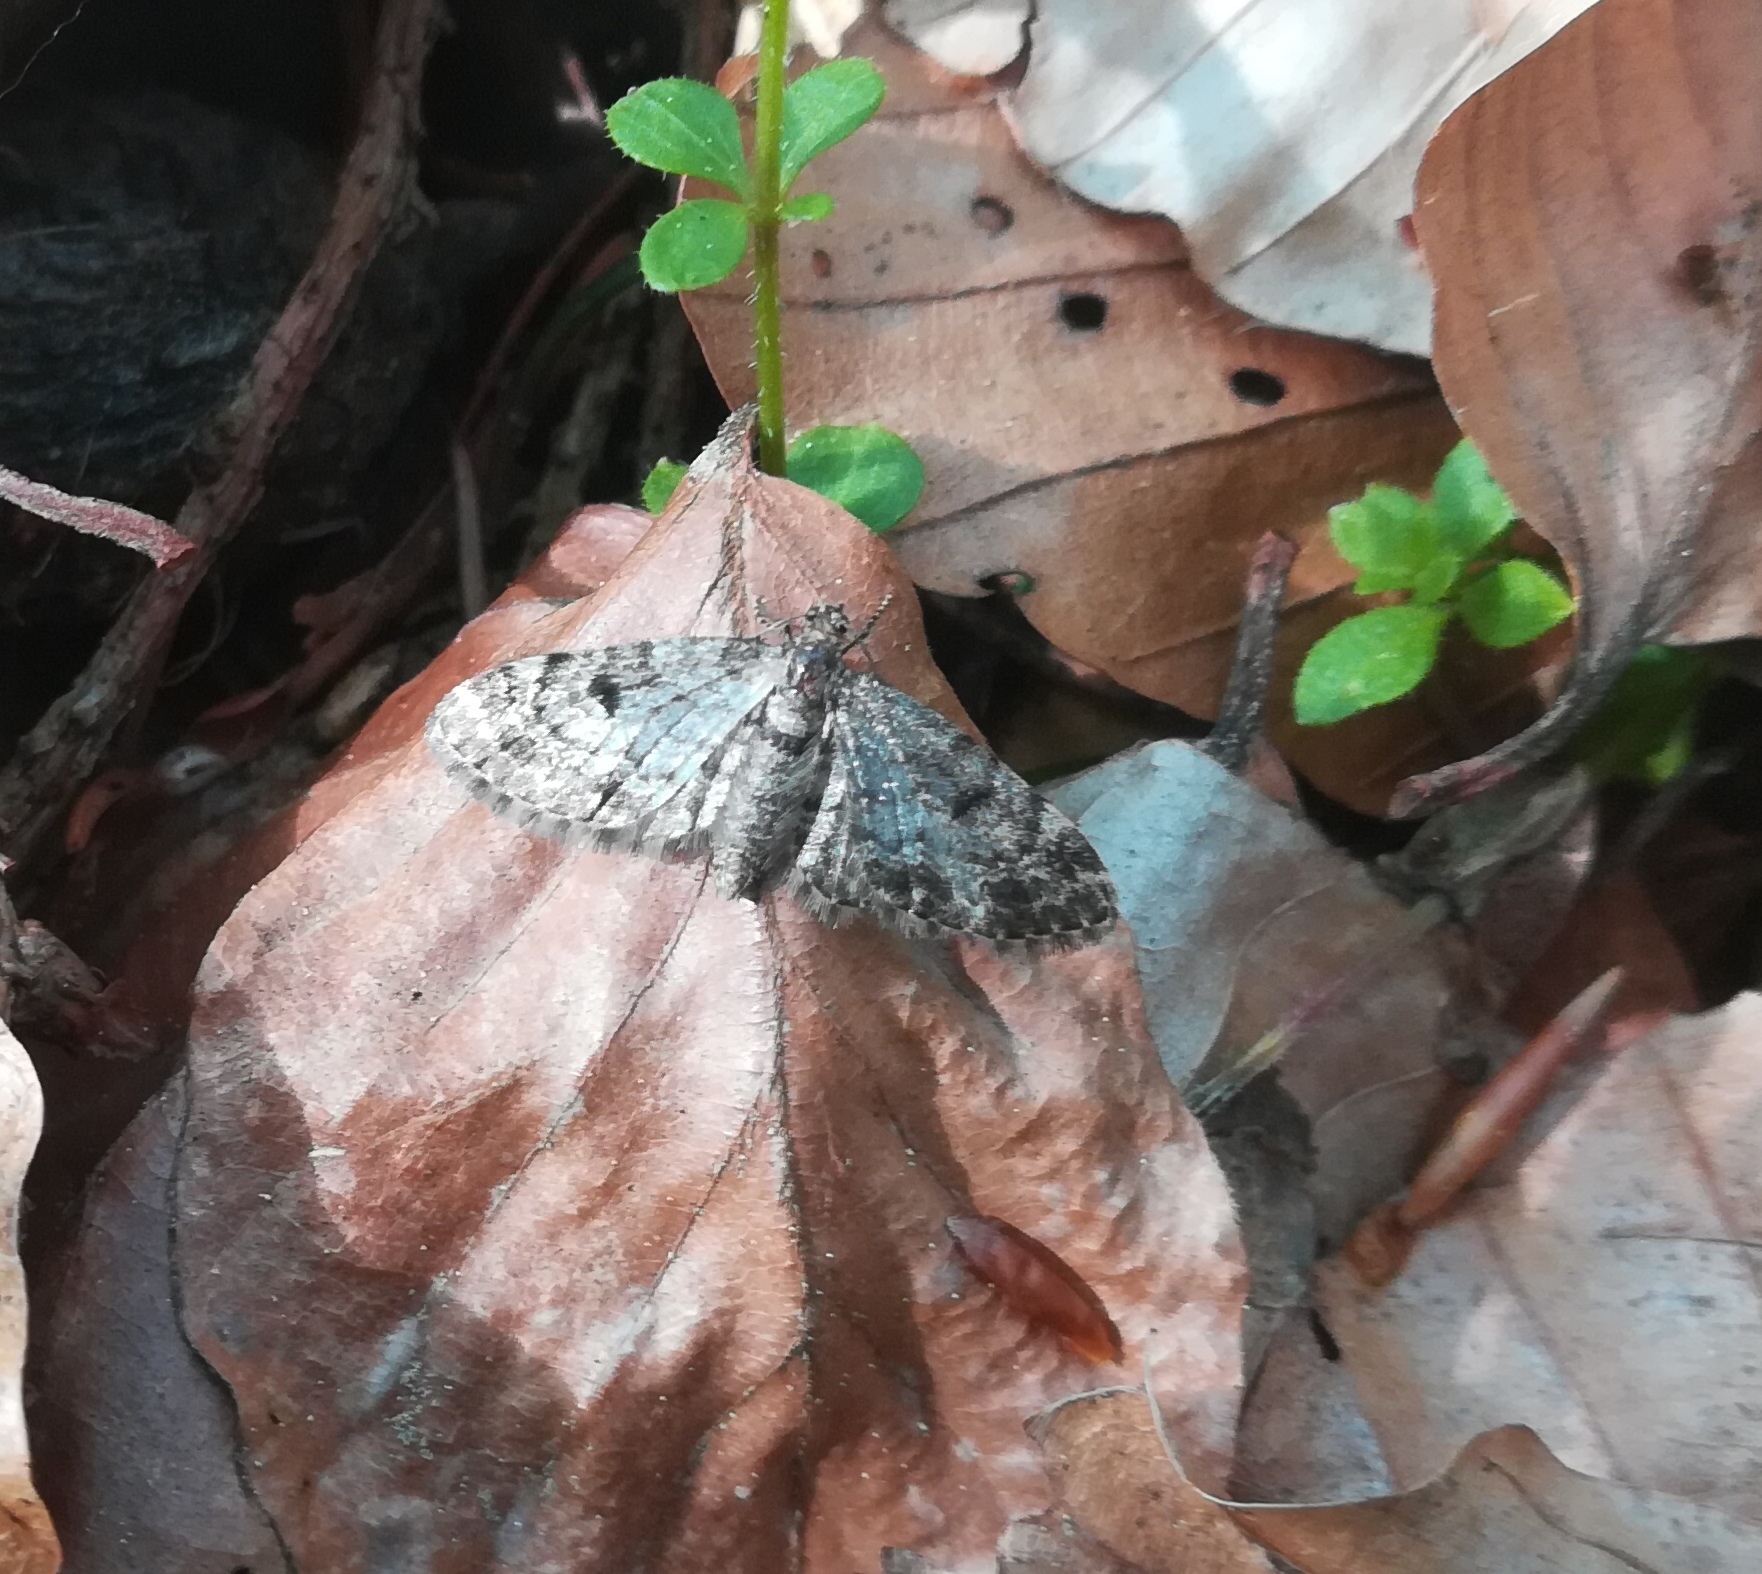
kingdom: Animalia
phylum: Arthropoda
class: Insecta
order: Lepidoptera
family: Geometridae
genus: Eupithecia
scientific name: Eupithecia tantillaria
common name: Dwarf pug
